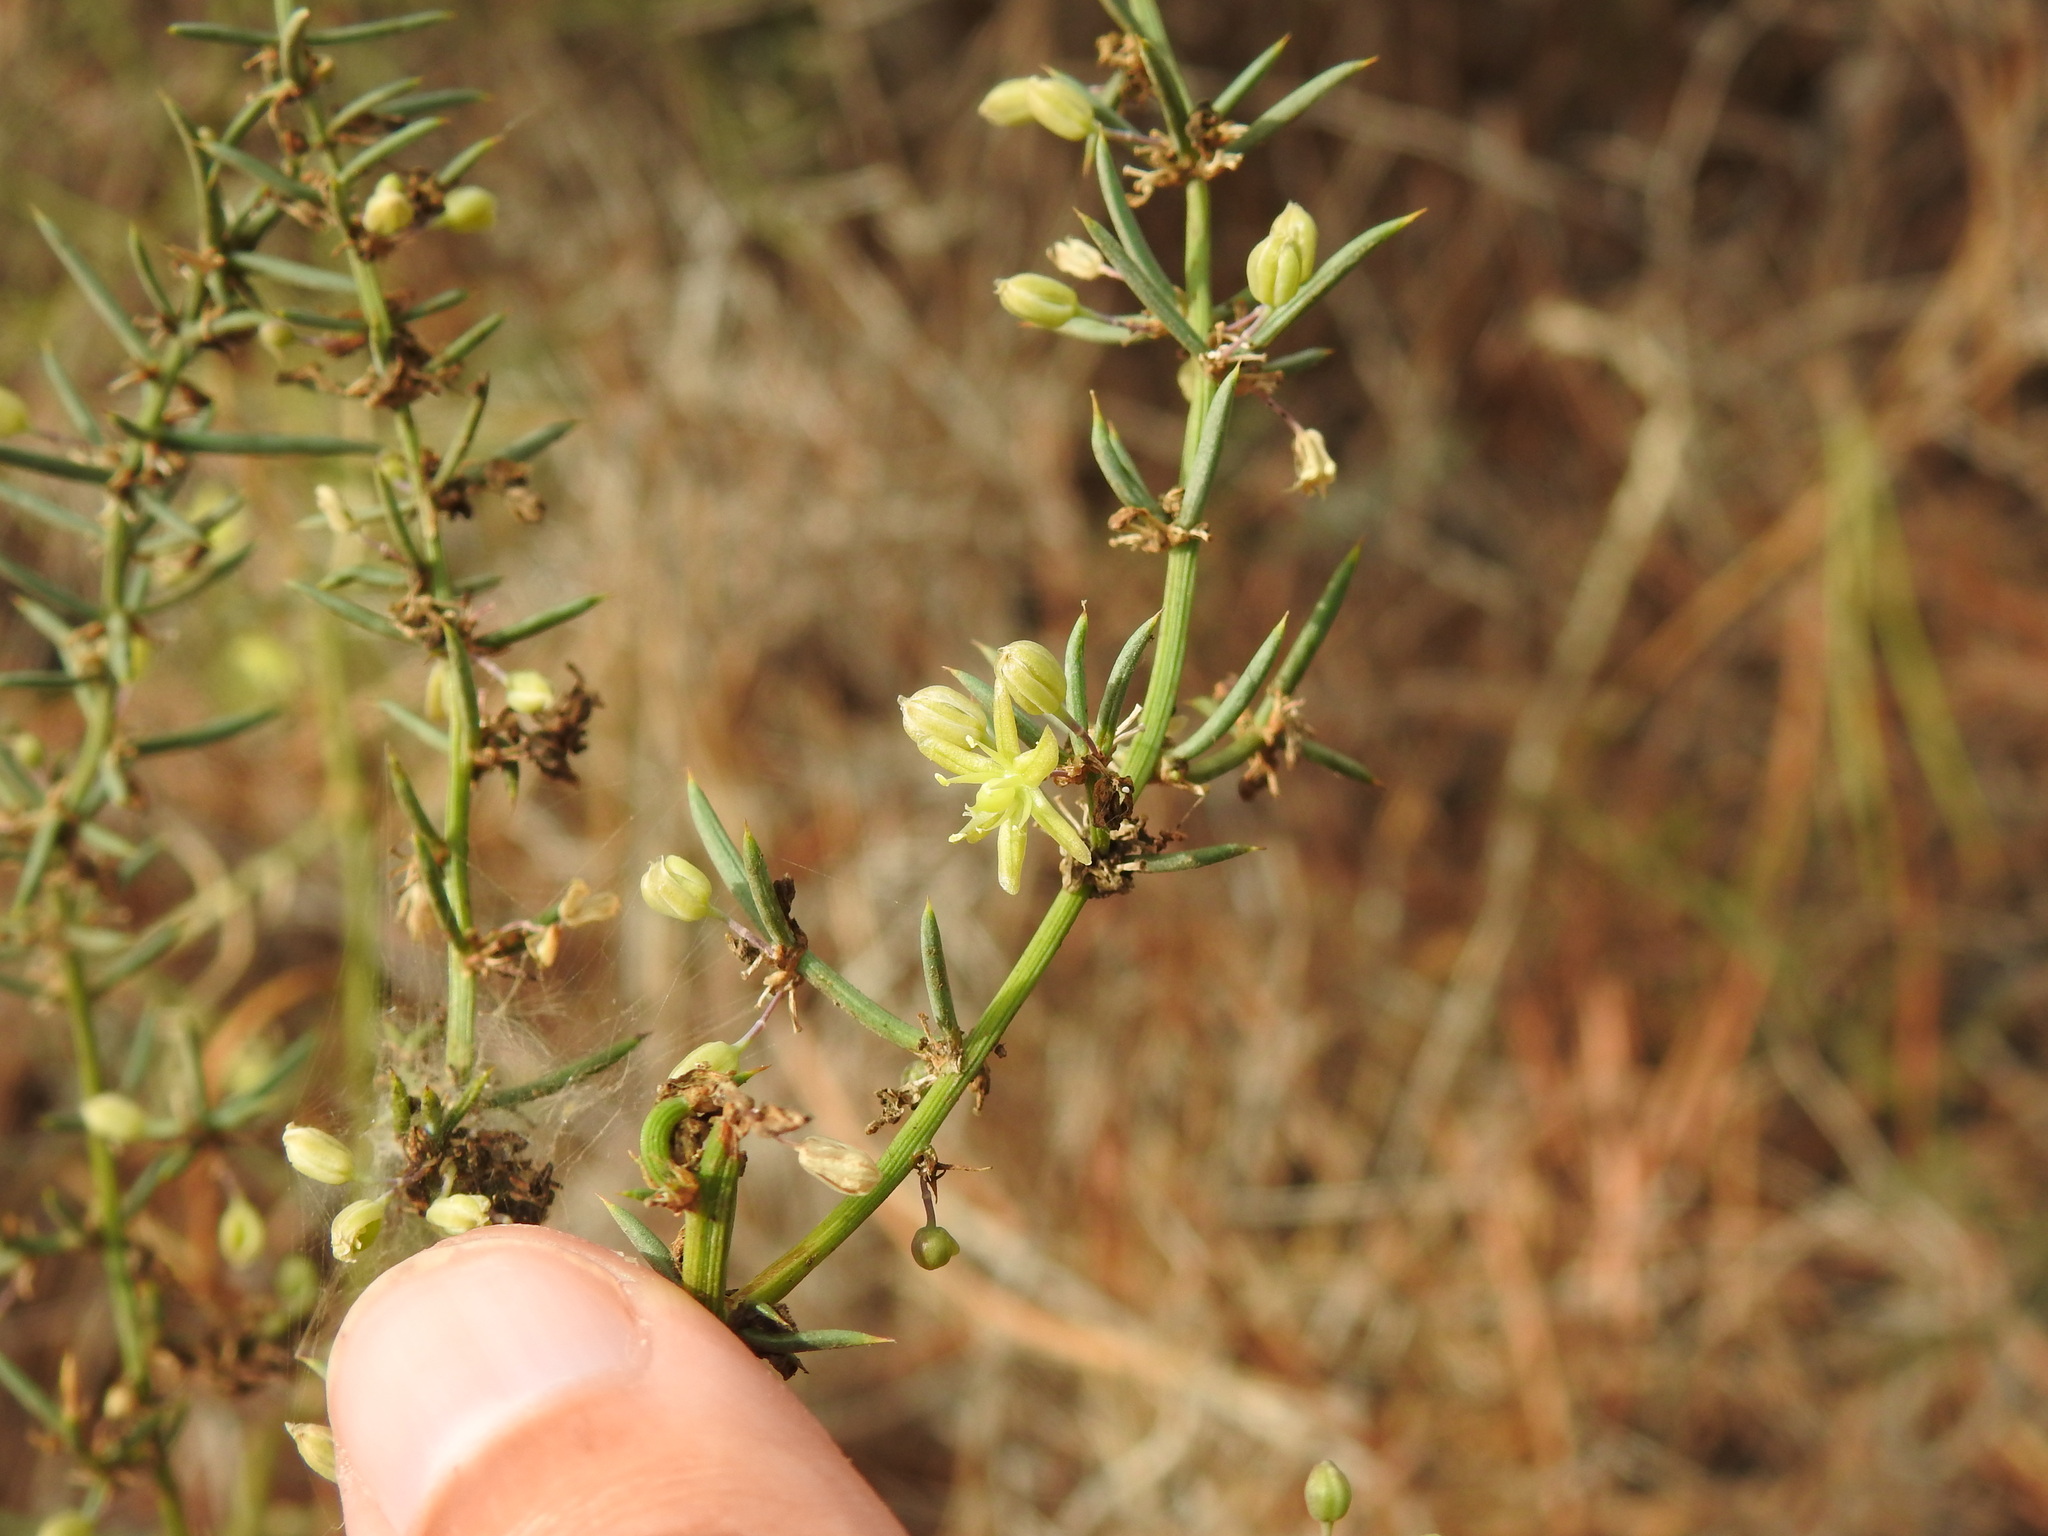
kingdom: Plantae
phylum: Tracheophyta
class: Liliopsida
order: Asparagales
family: Asparagaceae
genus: Asparagus
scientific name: Asparagus aphyllus
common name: Mediterranean asparagus
